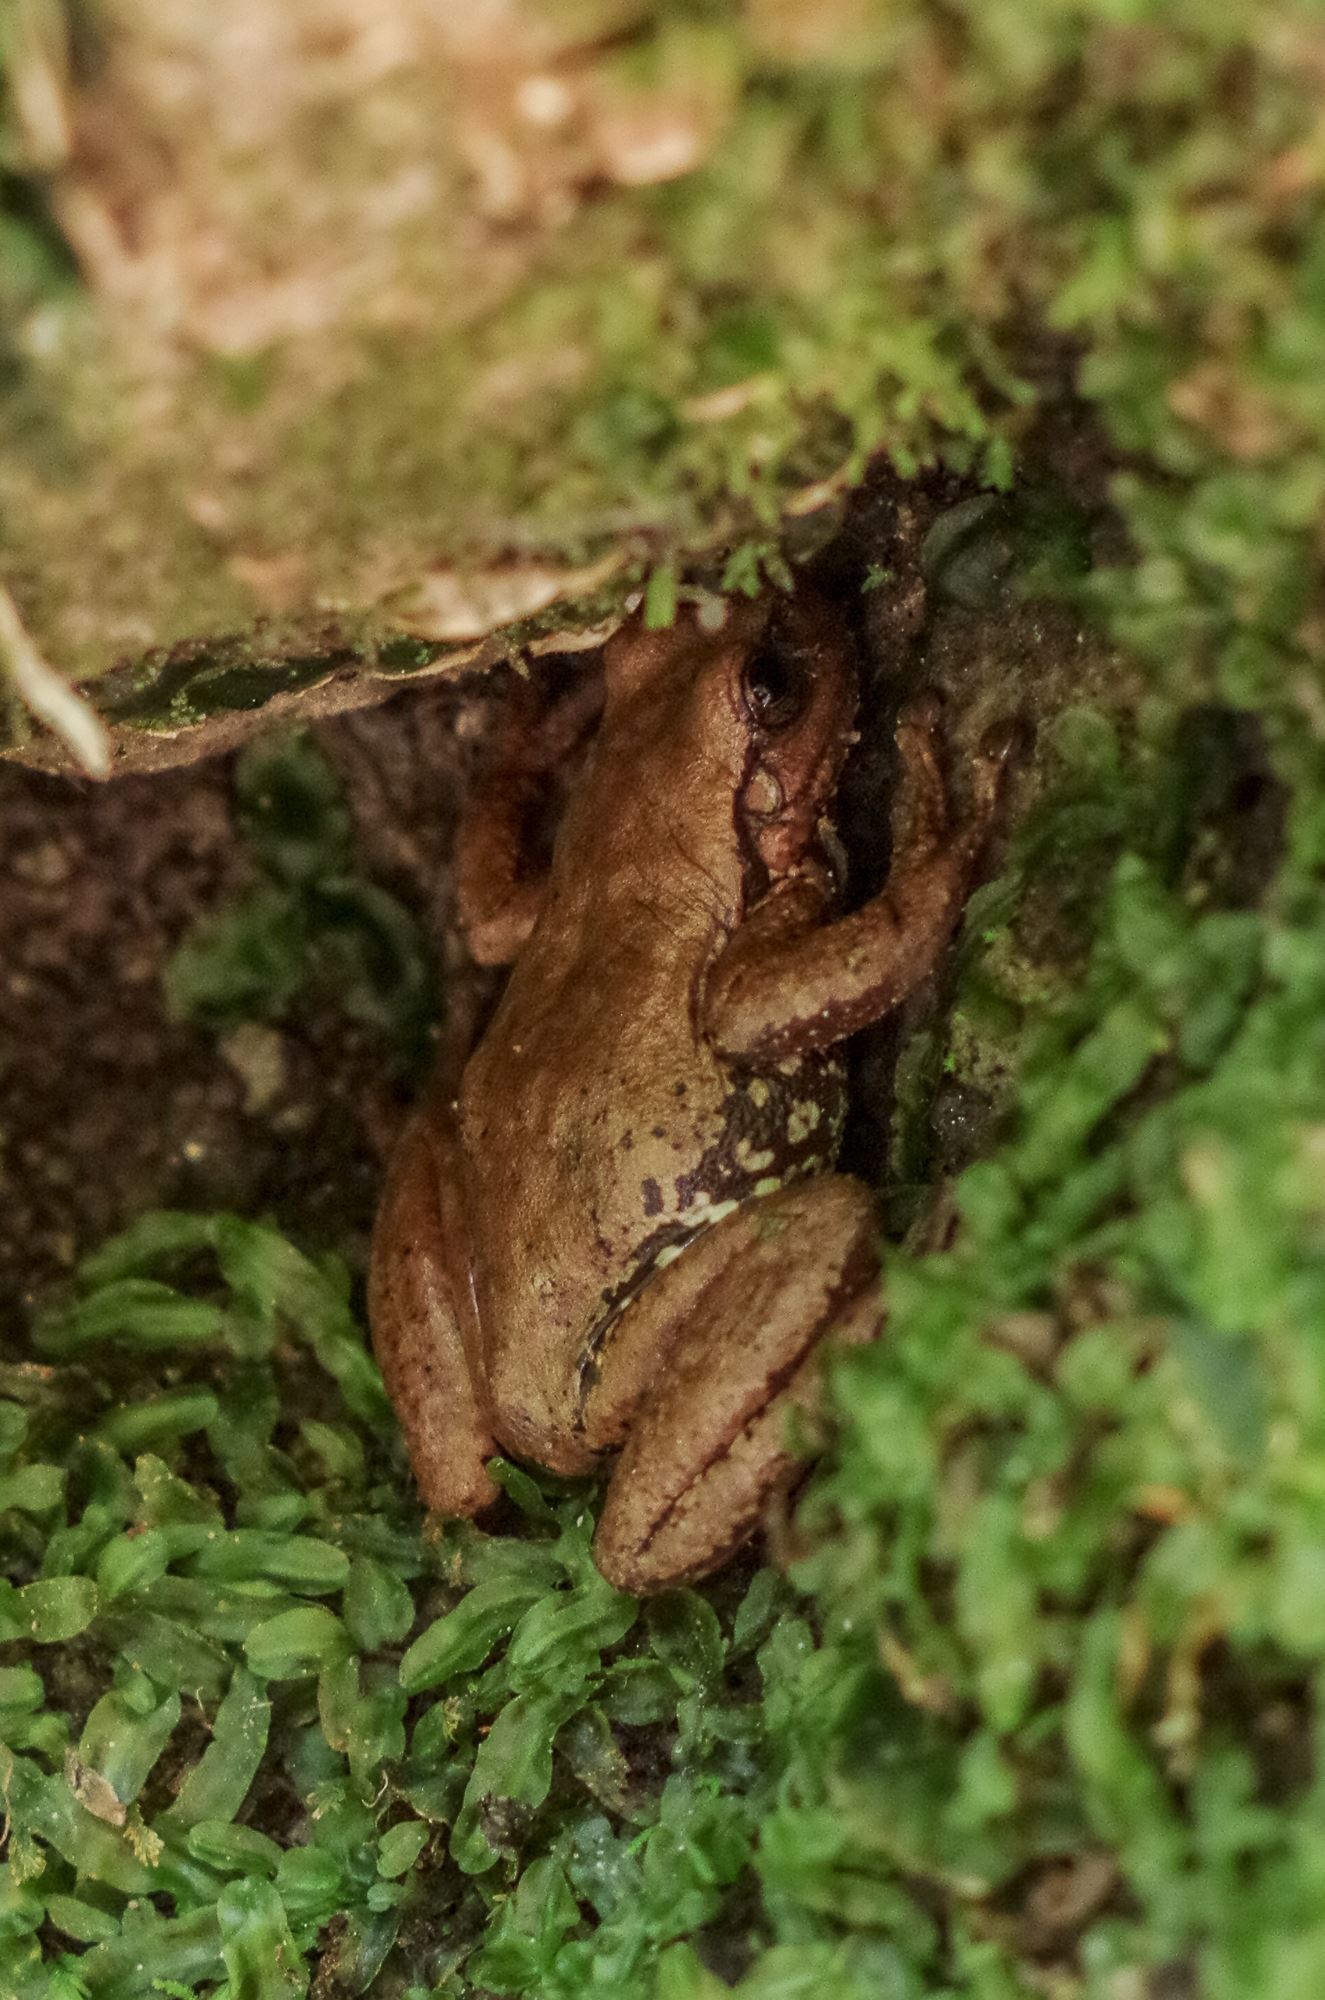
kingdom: Animalia
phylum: Chordata
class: Amphibia
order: Anura
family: Hylidae
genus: Sarcohyla
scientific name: Sarcohyla hapsa
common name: Northern streamside treefrog
